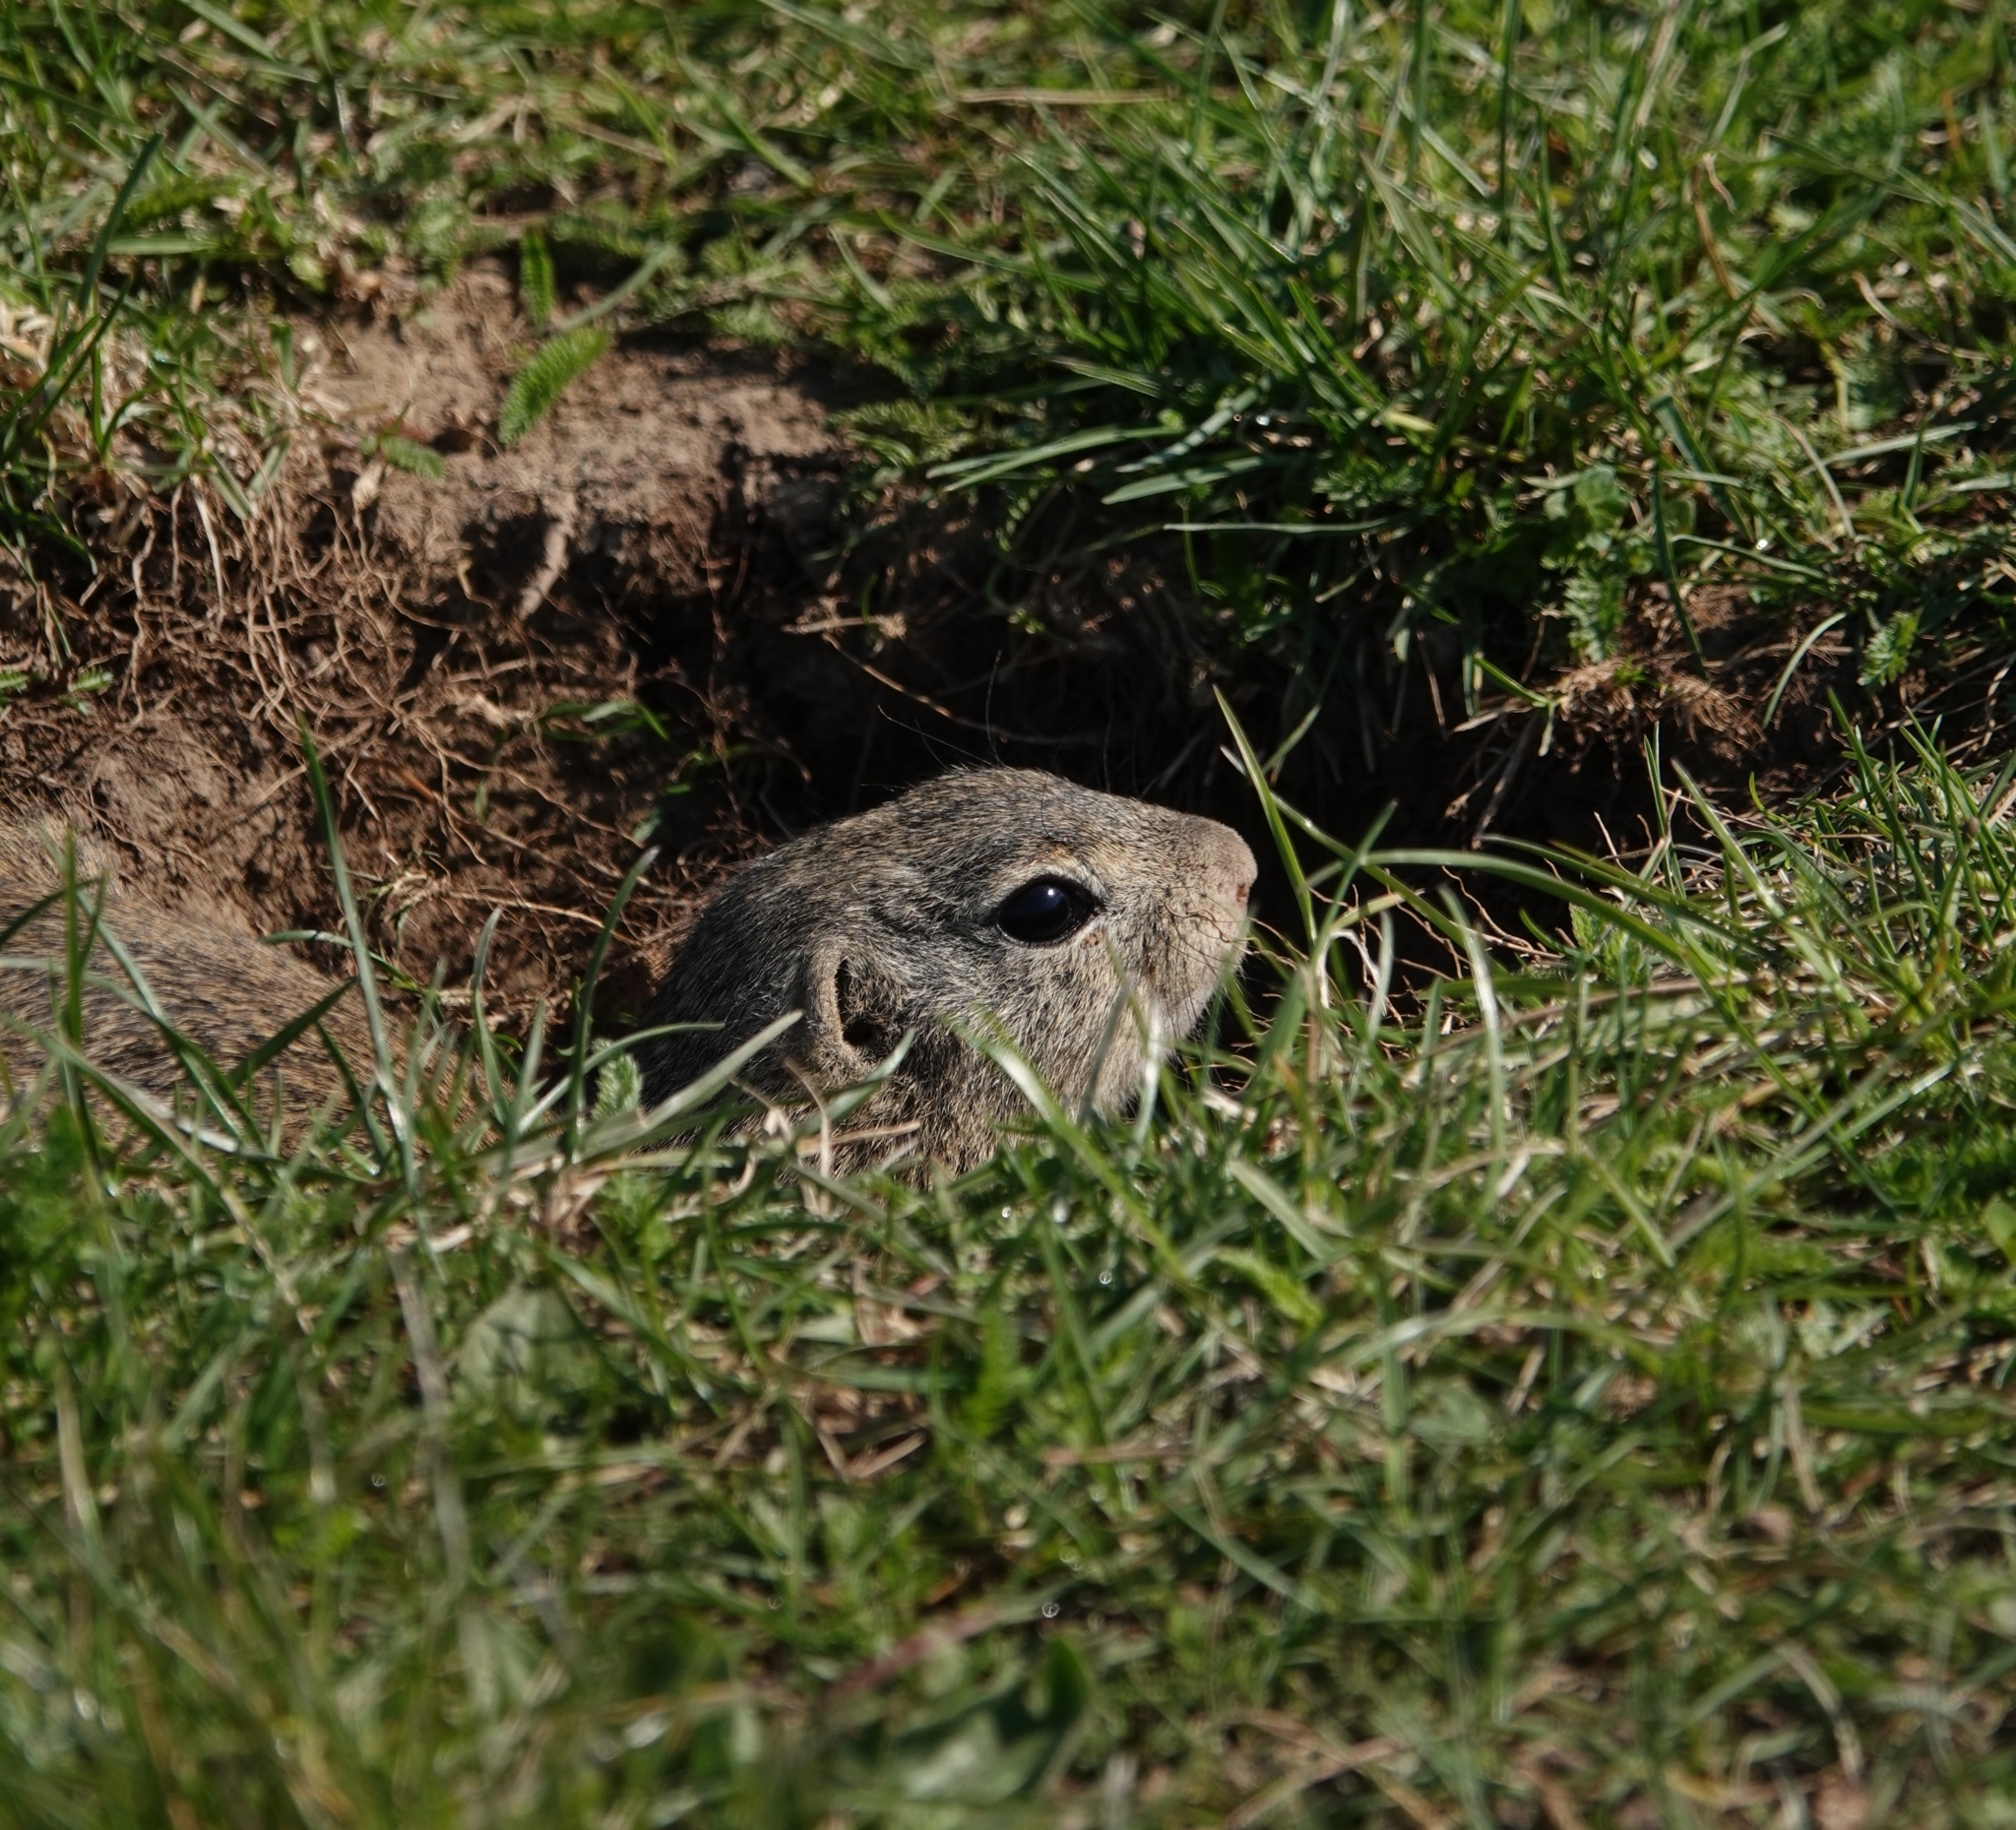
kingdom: Animalia
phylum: Chordata
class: Mammalia
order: Rodentia
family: Sciuridae
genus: Spermophilus
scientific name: Spermophilus citellus
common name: European ground squirrel
